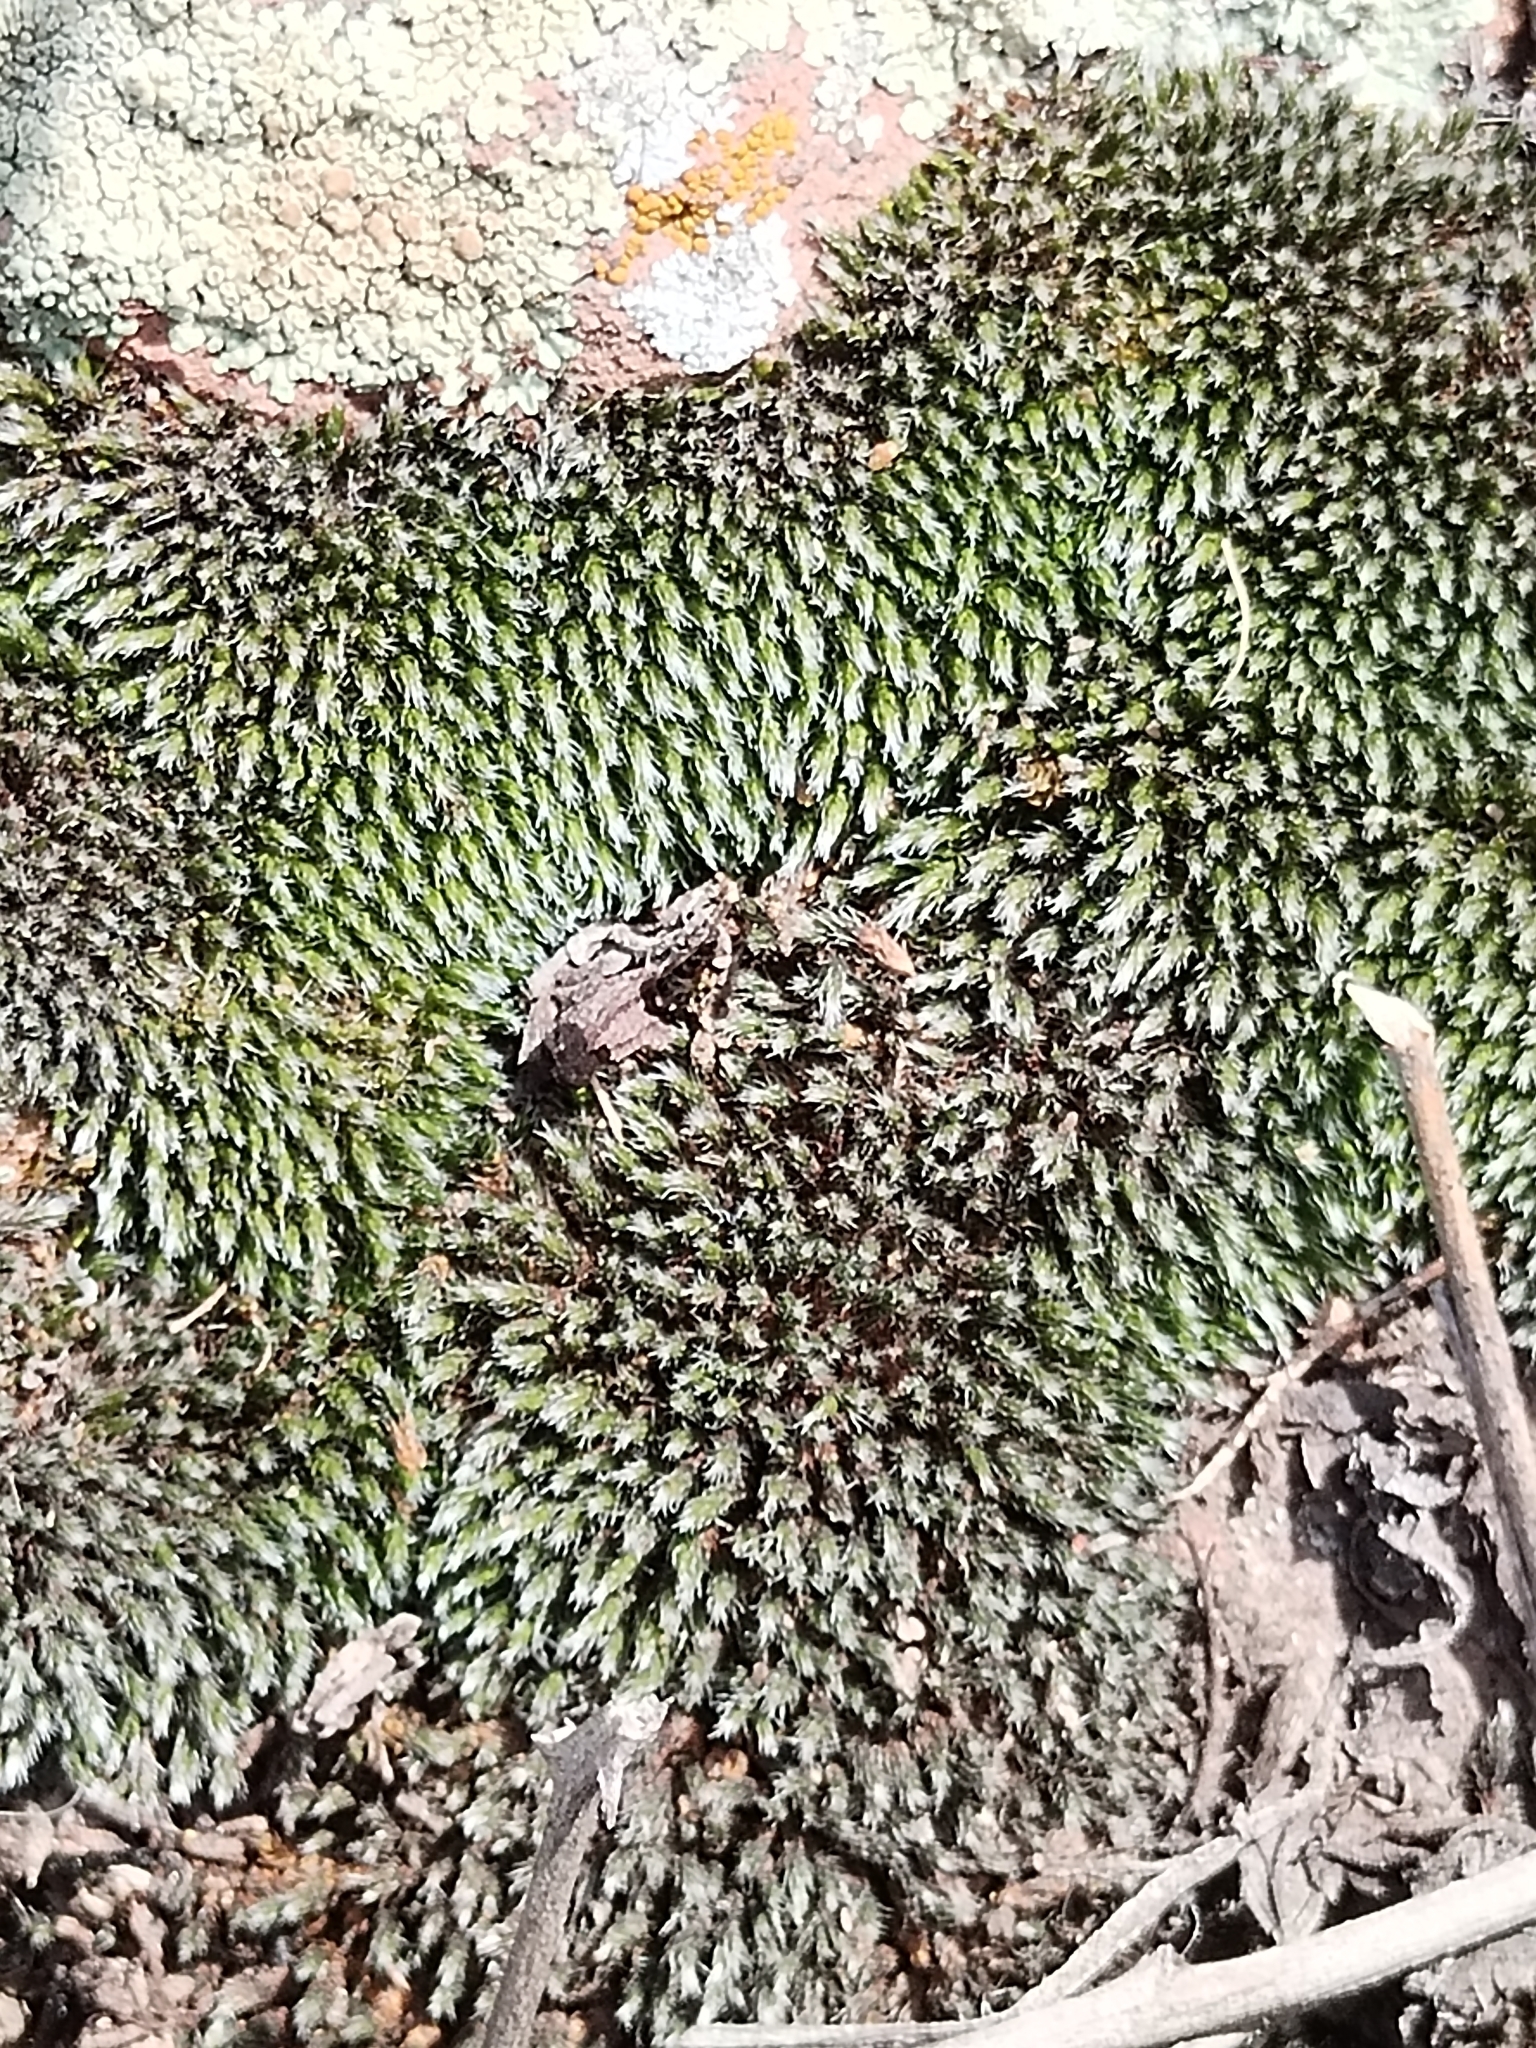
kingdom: Plantae
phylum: Bryophyta
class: Bryopsida
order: Grimmiales
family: Grimmiaceae
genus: Grimmia
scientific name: Grimmia laevigata
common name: Hoary grimmia
